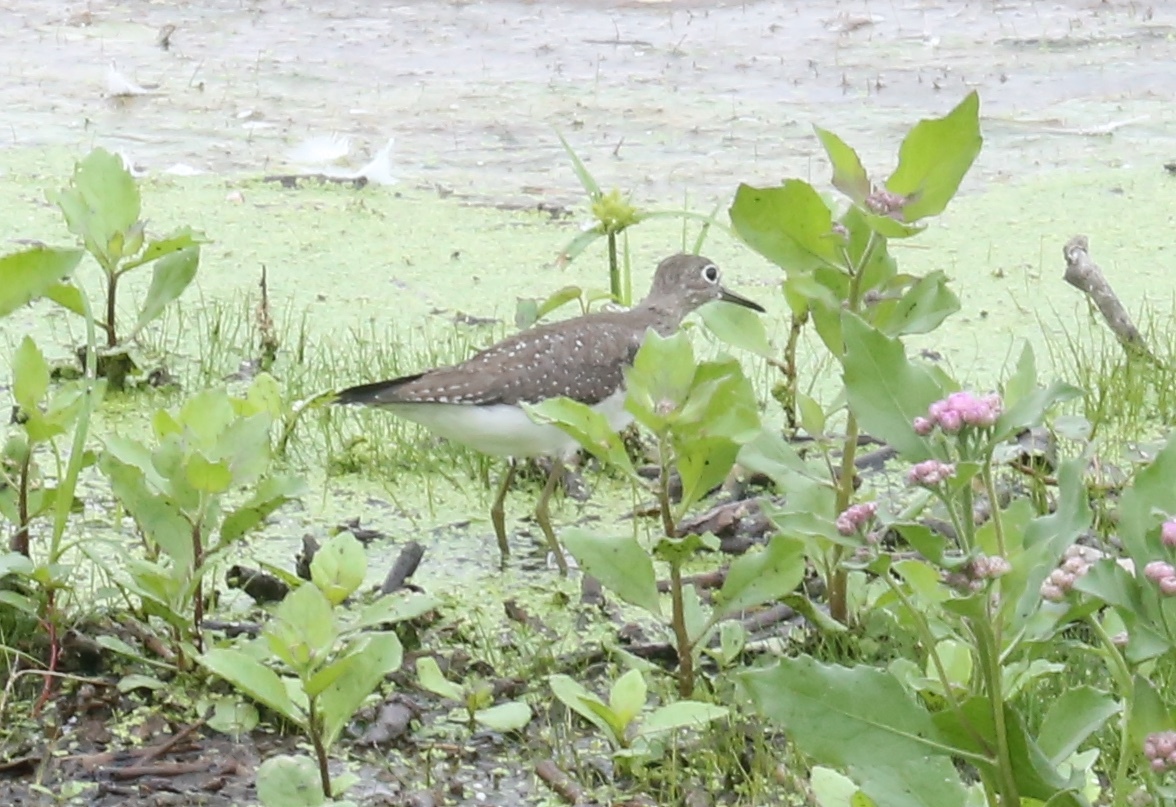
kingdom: Animalia
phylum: Chordata
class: Aves
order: Charadriiformes
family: Scolopacidae
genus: Tringa
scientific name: Tringa solitaria
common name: Solitary sandpiper
